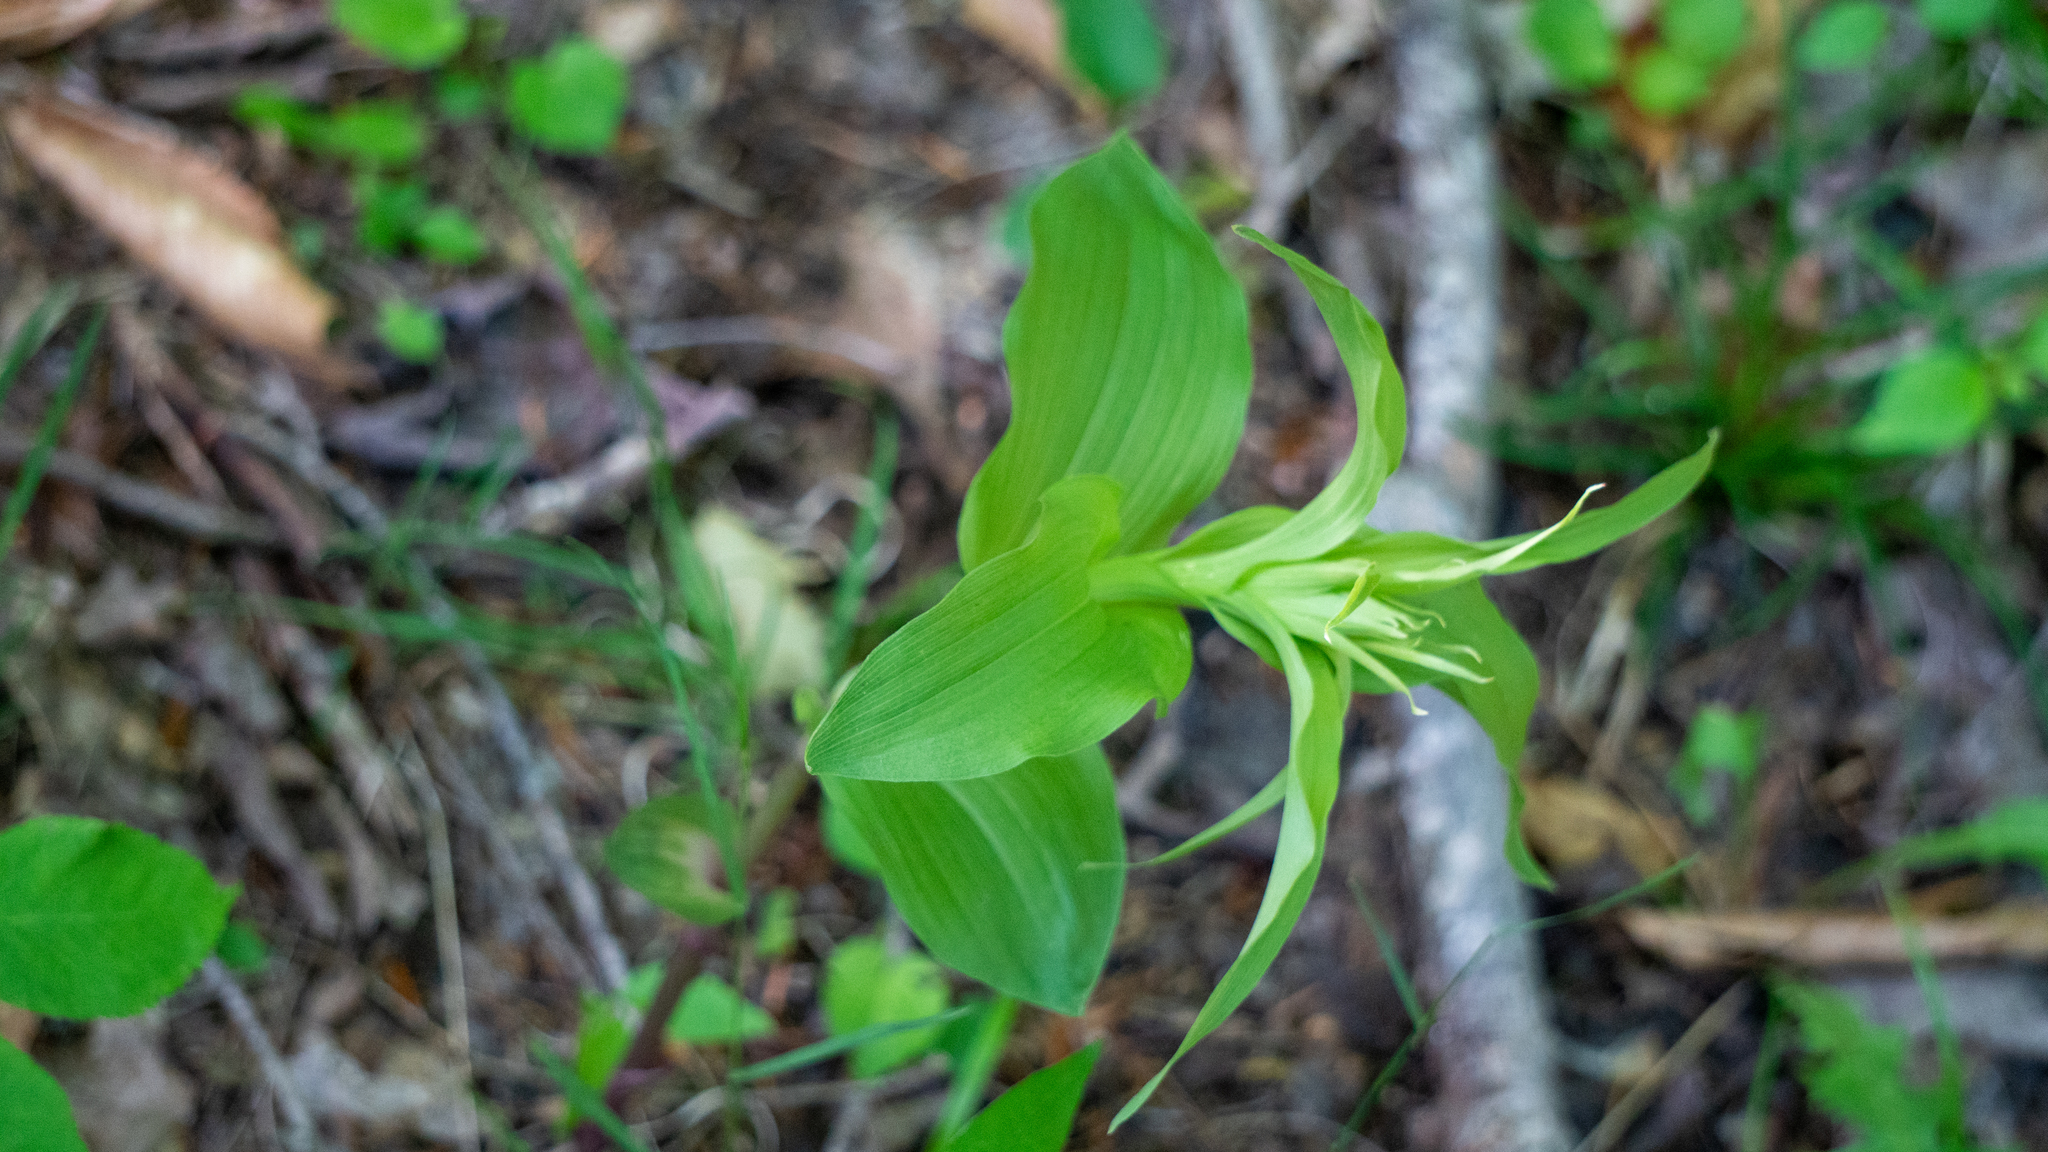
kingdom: Plantae
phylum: Tracheophyta
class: Liliopsida
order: Asparagales
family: Orchidaceae
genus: Epipactis
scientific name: Epipactis helleborine
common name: Broad-leaved helleborine
